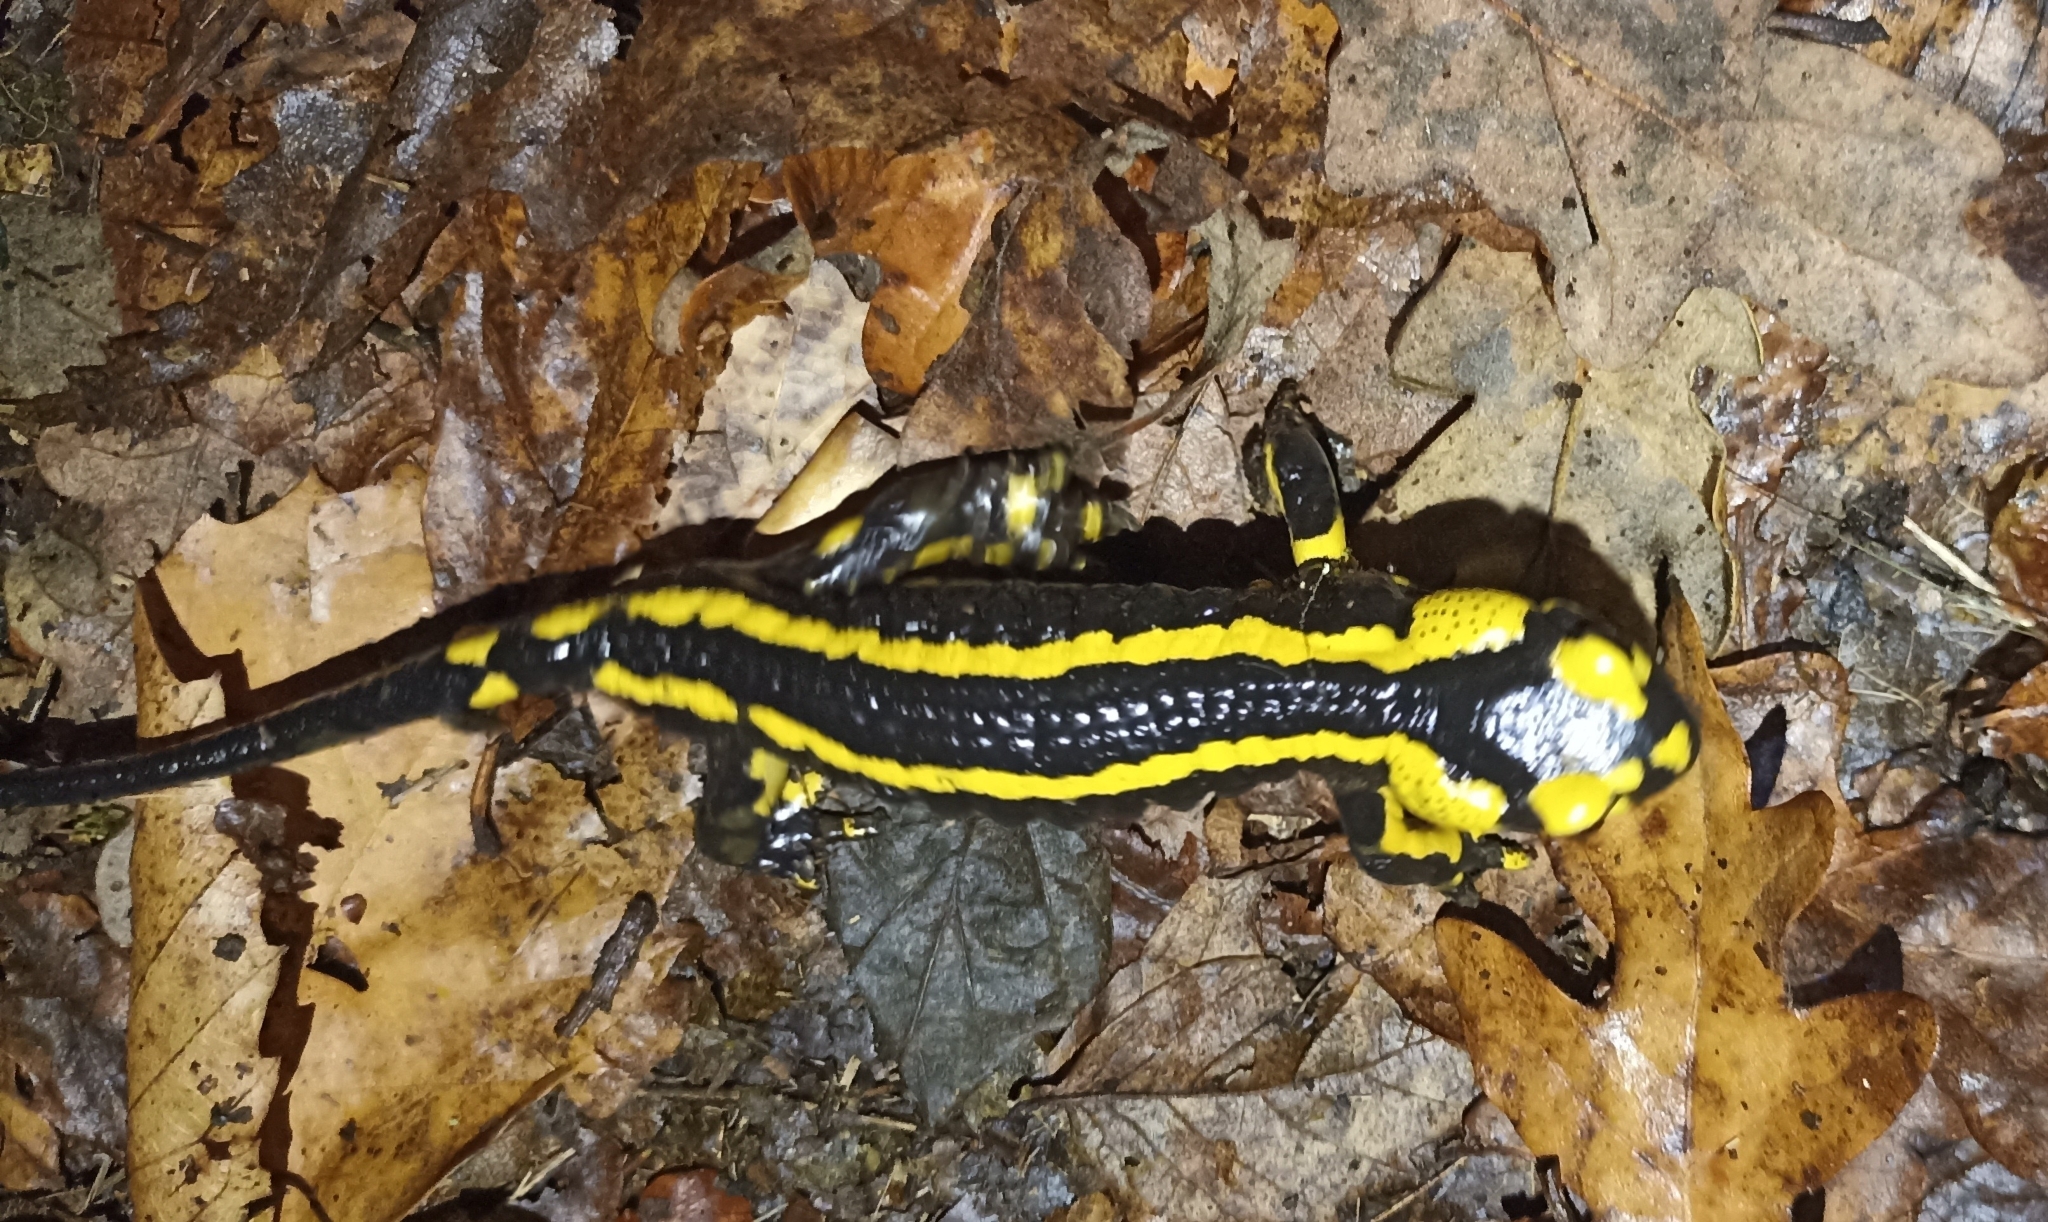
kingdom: Animalia
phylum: Chordata
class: Amphibia
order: Caudata
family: Salamandridae
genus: Salamandra
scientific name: Salamandra salamandra
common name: Fire salamander
